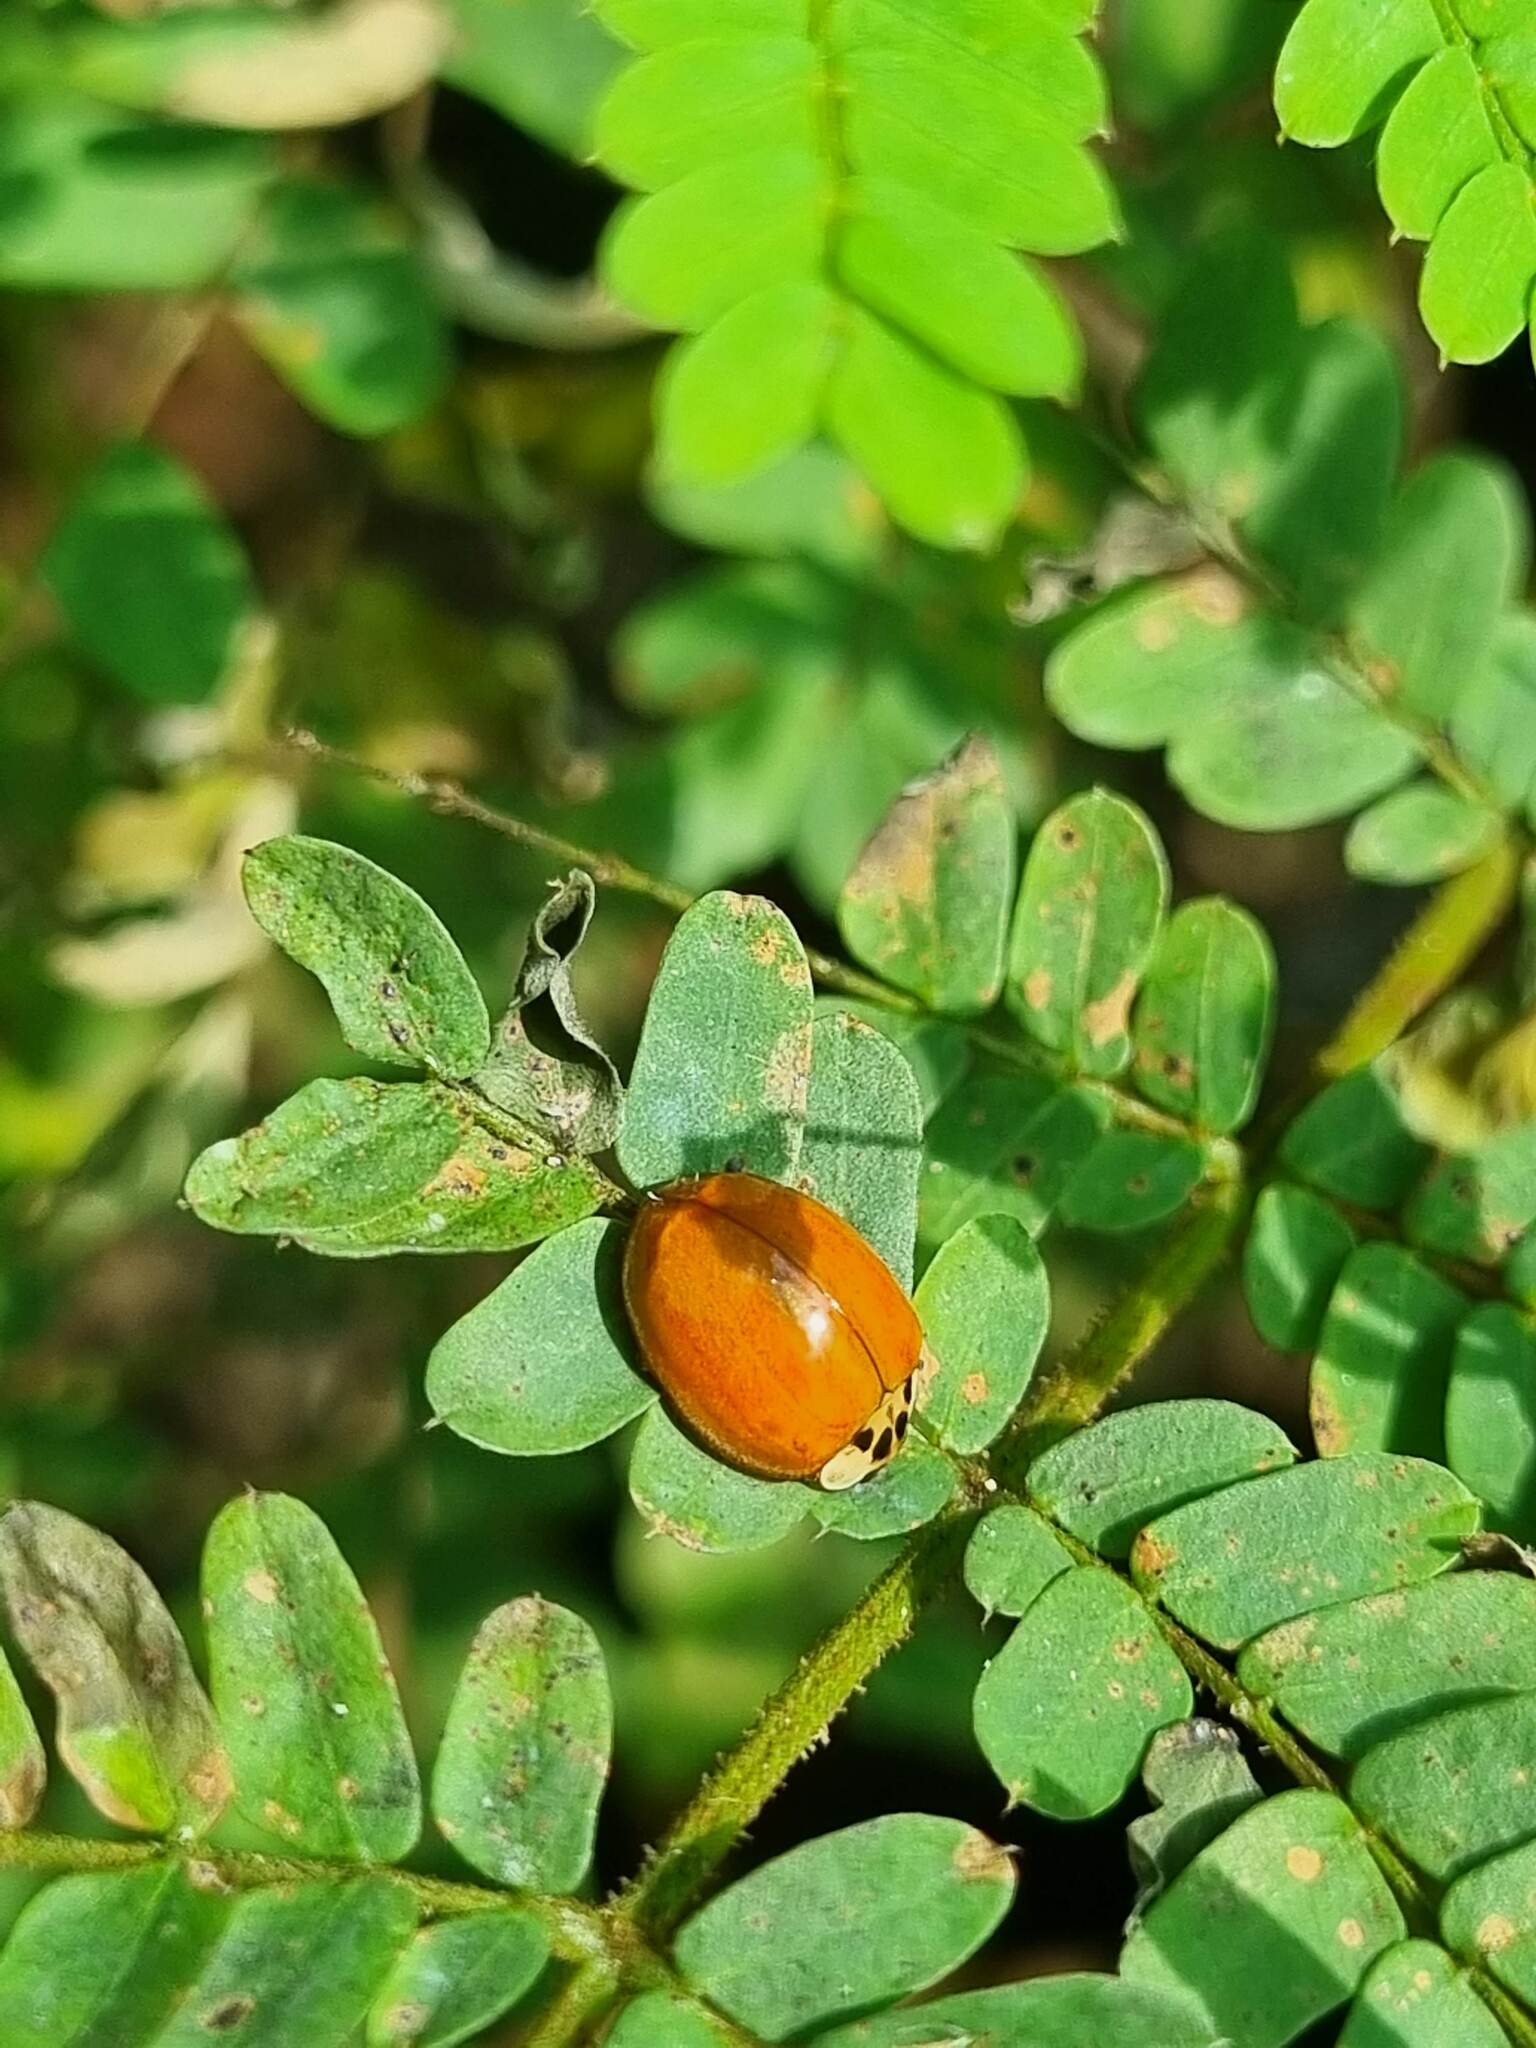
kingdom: Animalia
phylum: Arthropoda
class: Insecta
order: Coleoptera
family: Coccinellidae
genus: Harmonia
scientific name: Harmonia axyridis
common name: Harlequin ladybird
